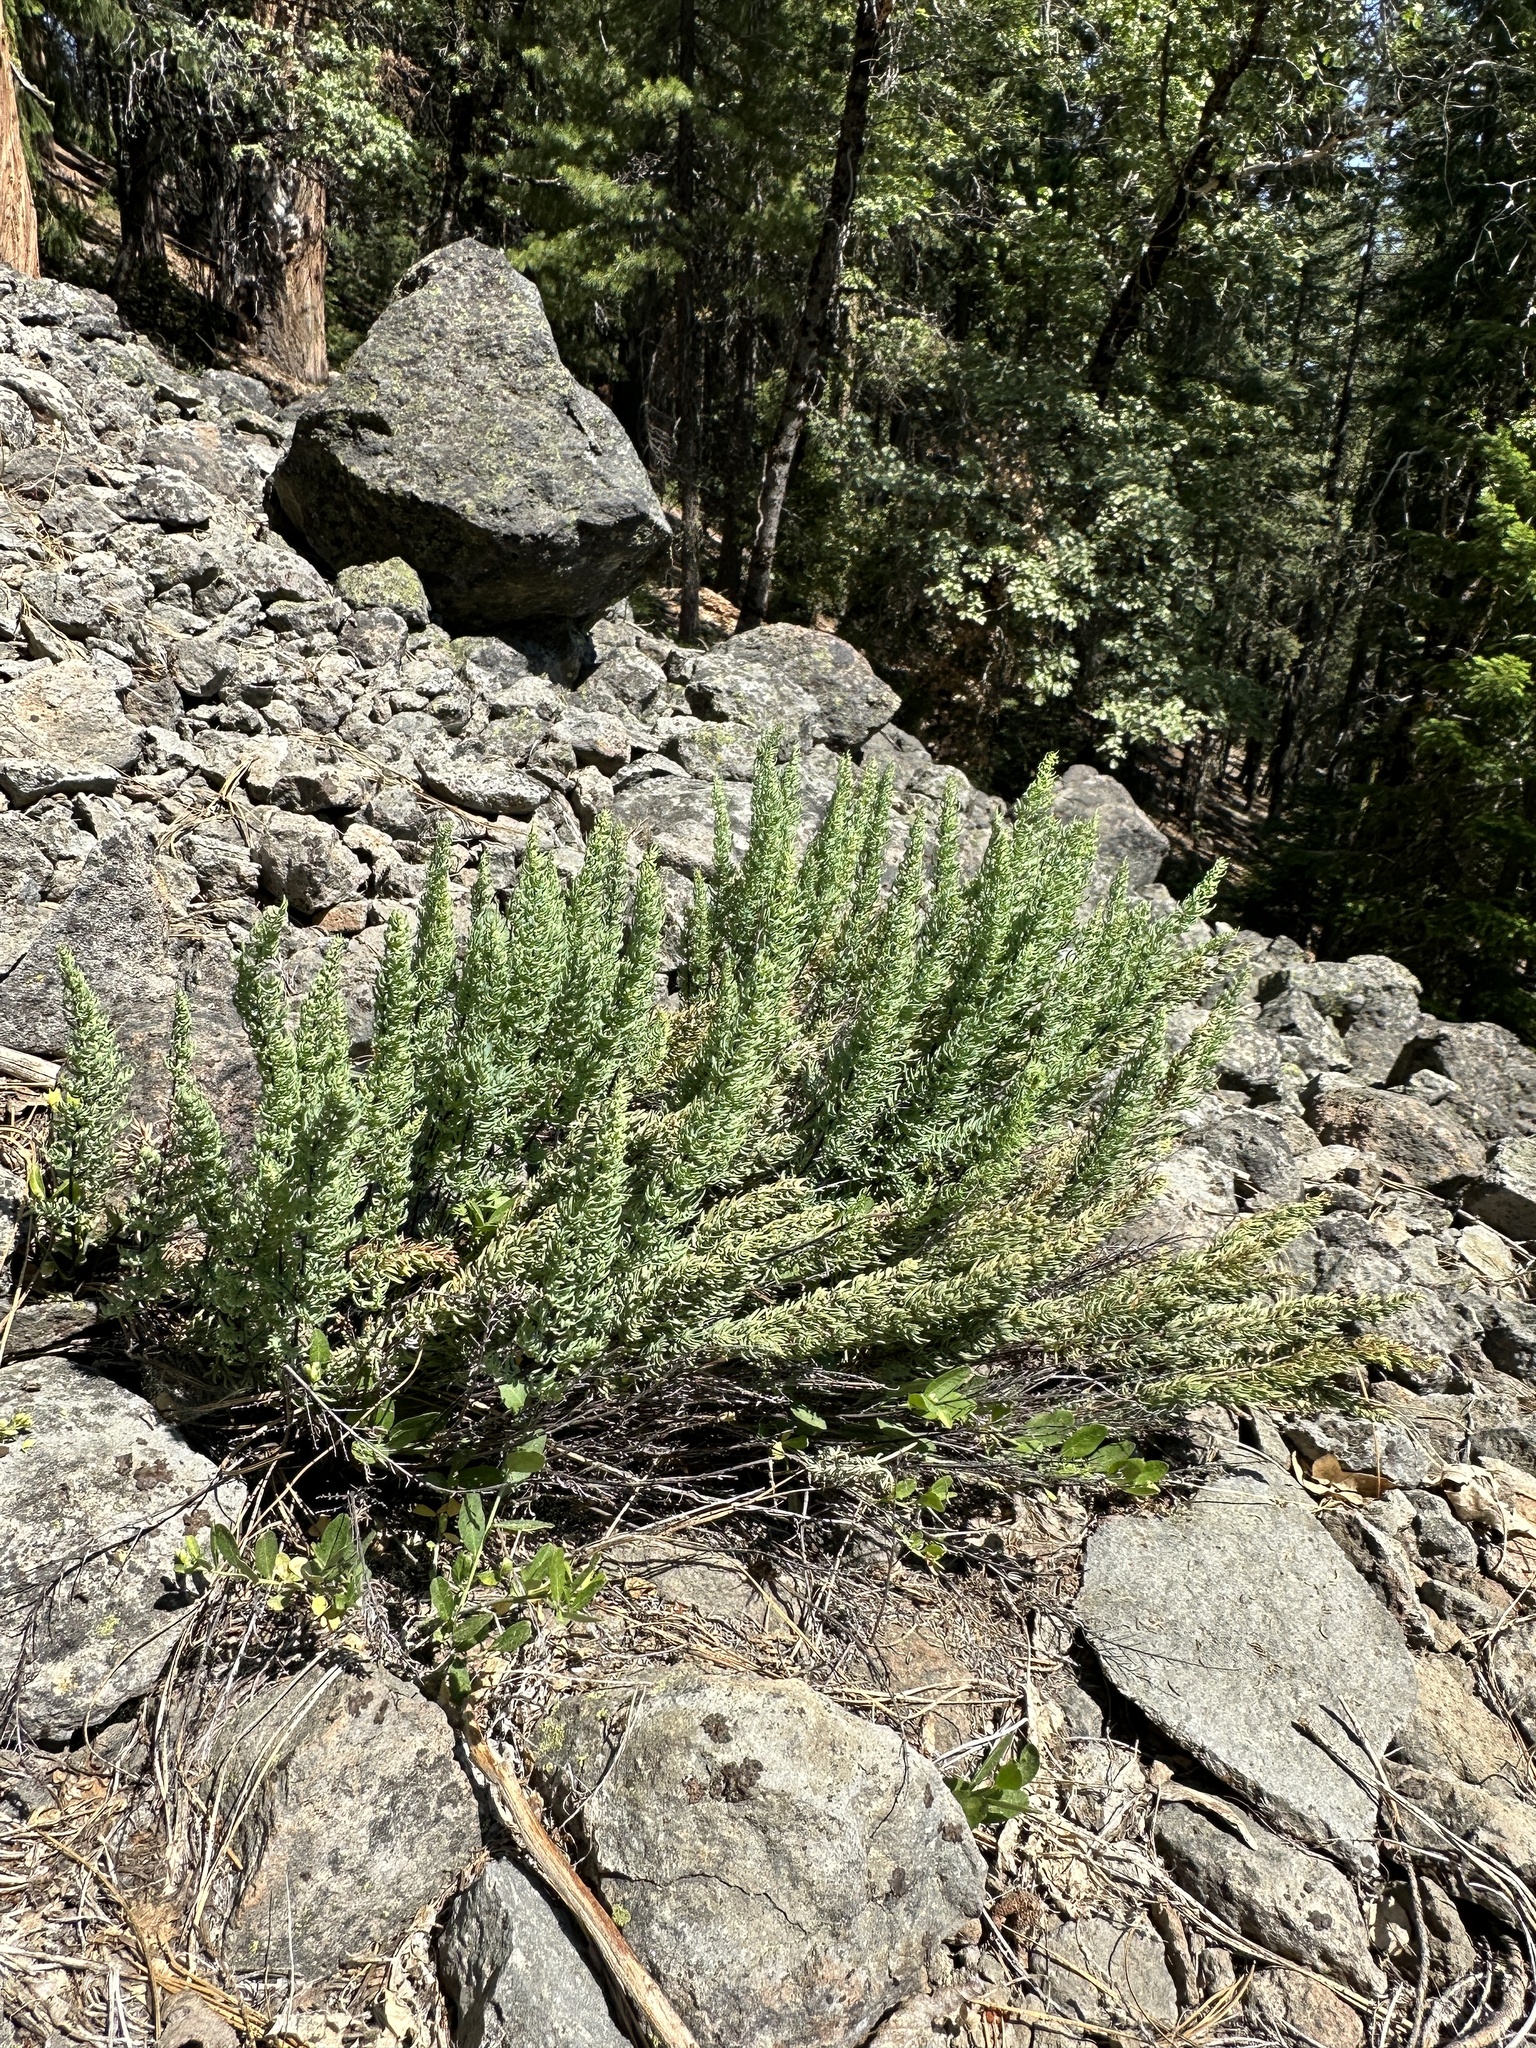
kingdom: Plantae
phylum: Tracheophyta
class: Polypodiopsida
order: Polypodiales
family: Pteridaceae
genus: Pellaea
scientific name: Pellaea brachyptera
